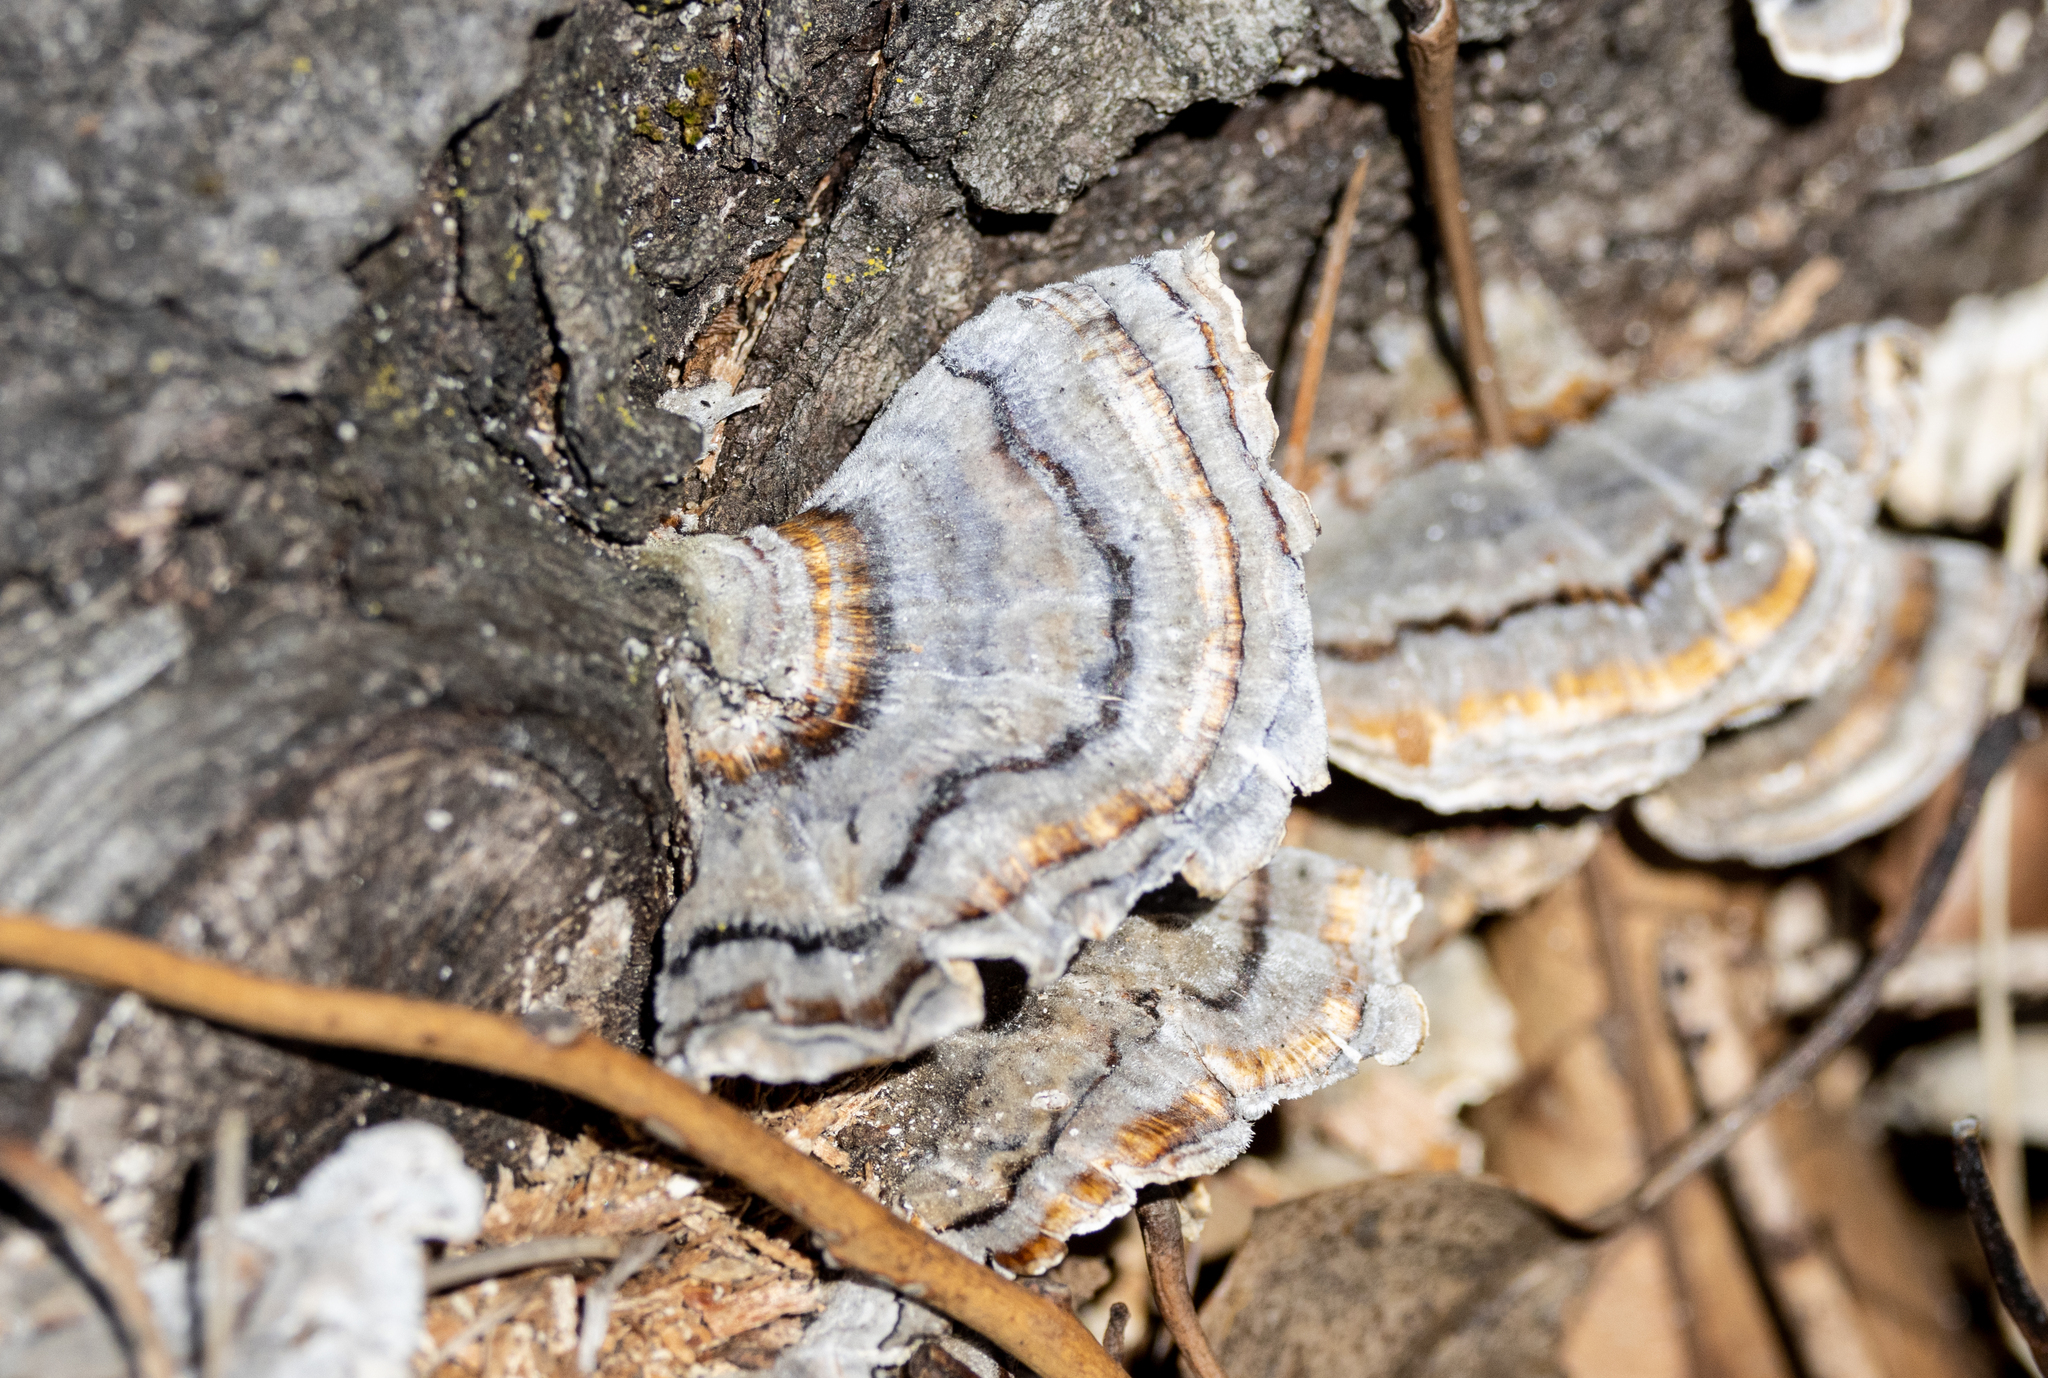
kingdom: Fungi
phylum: Basidiomycota
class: Agaricomycetes
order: Polyporales
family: Polyporaceae
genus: Trametes
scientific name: Trametes versicolor
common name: Turkeytail
